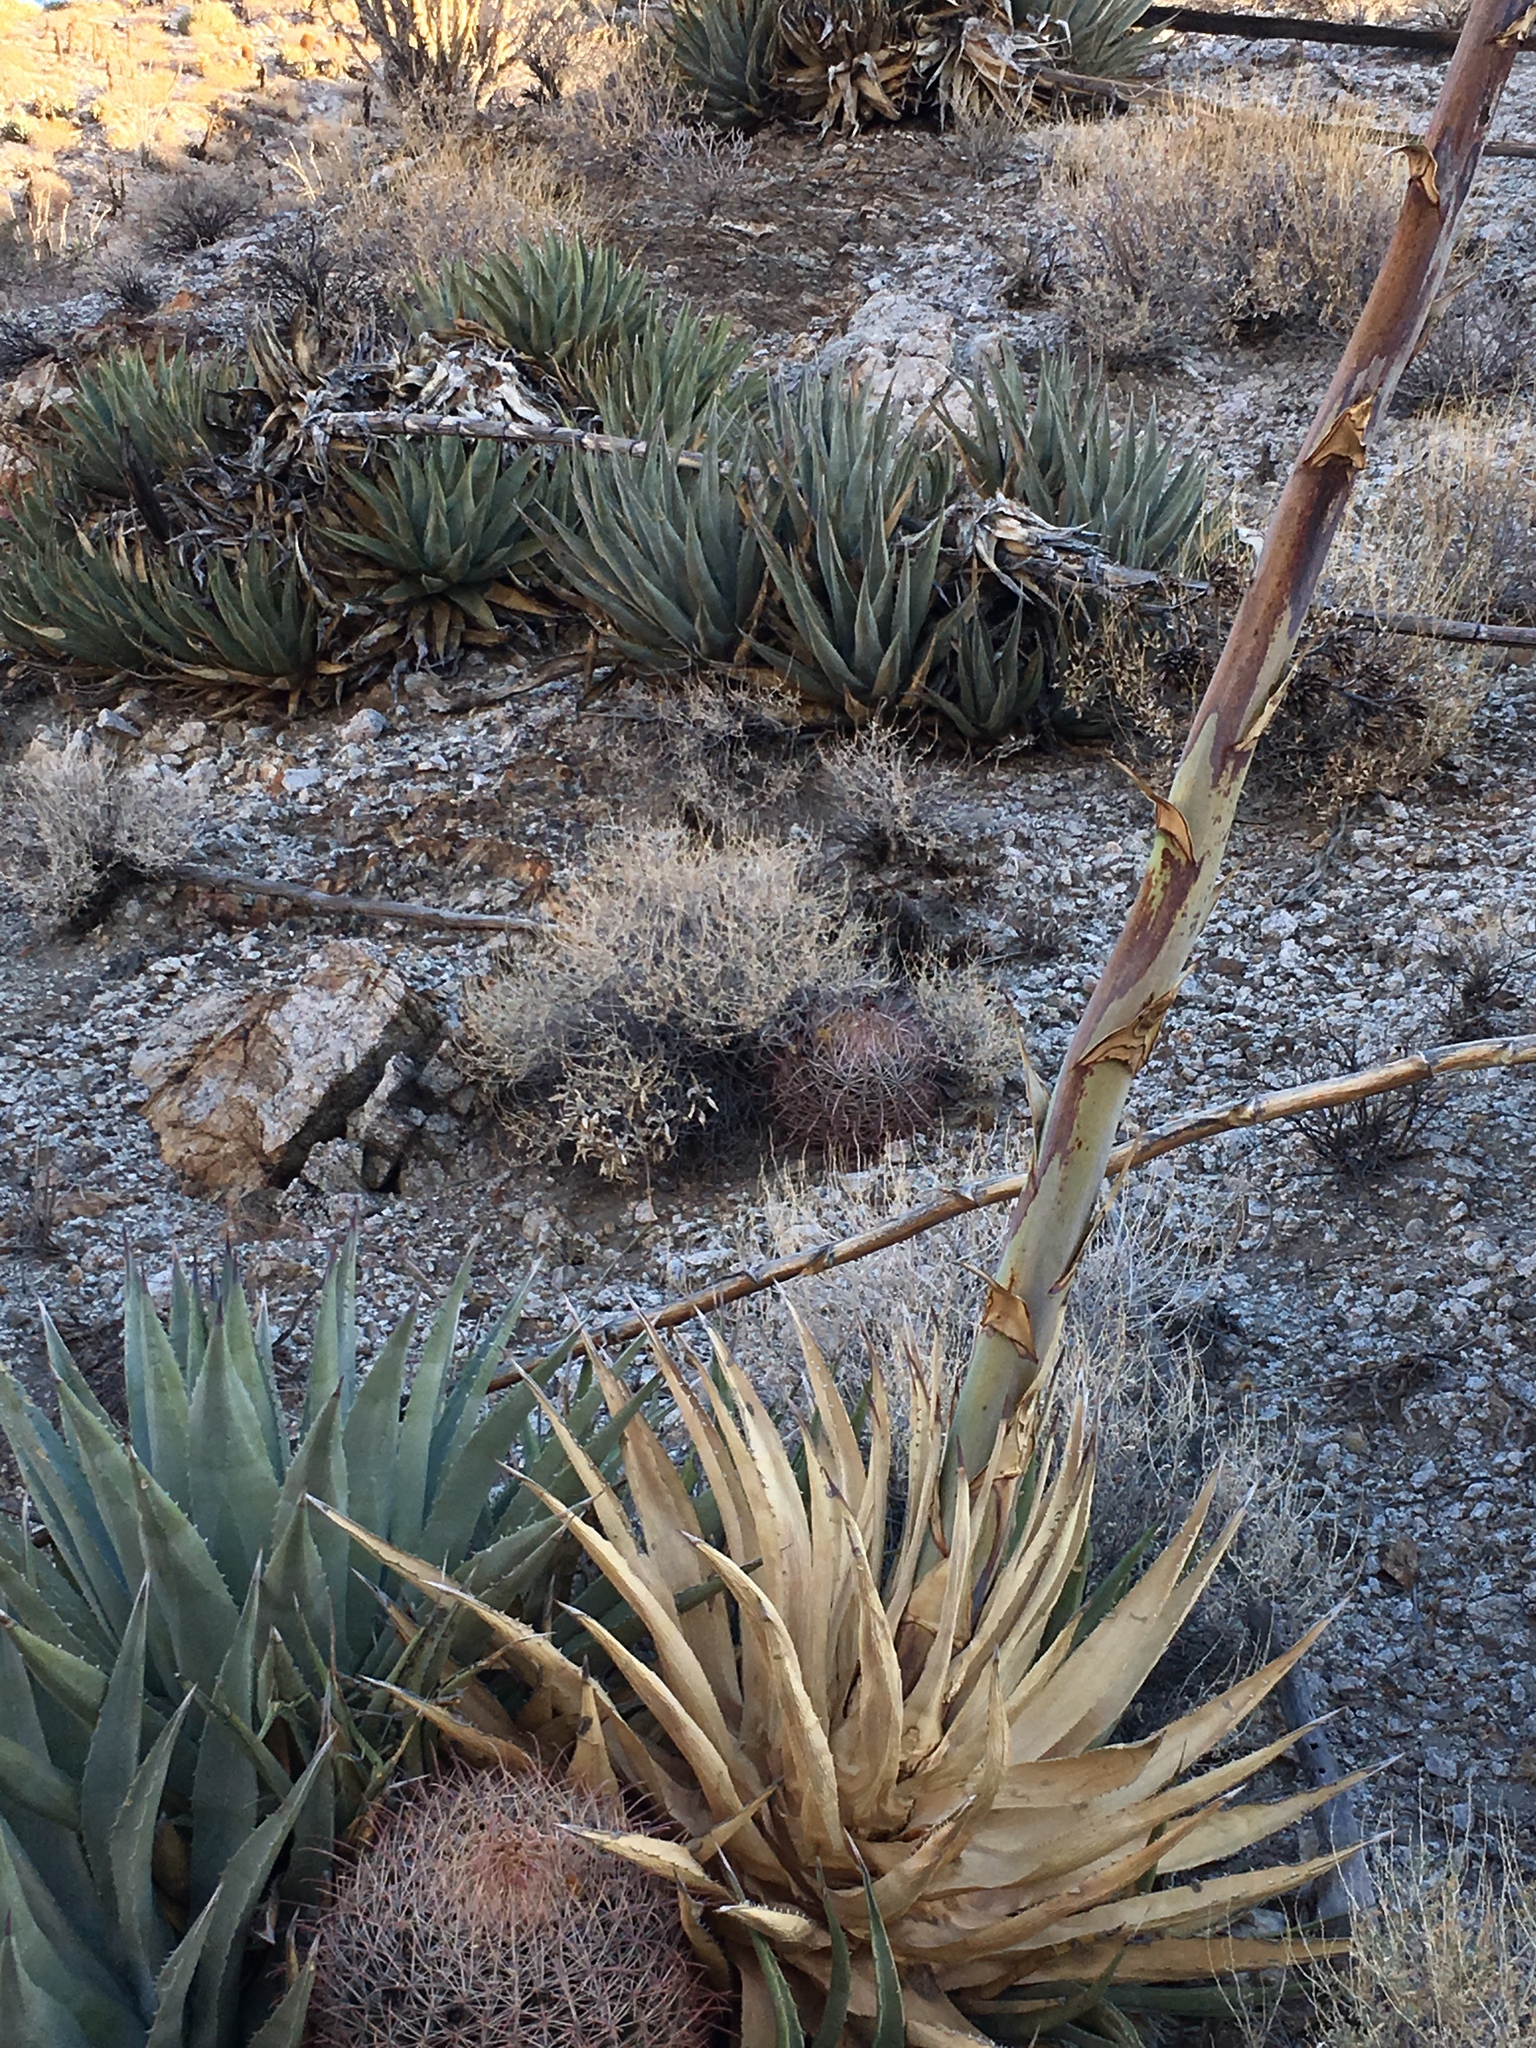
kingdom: Plantae
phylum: Tracheophyta
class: Liliopsida
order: Asparagales
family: Asparagaceae
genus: Agave
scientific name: Agave deserti
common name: Desert agave
